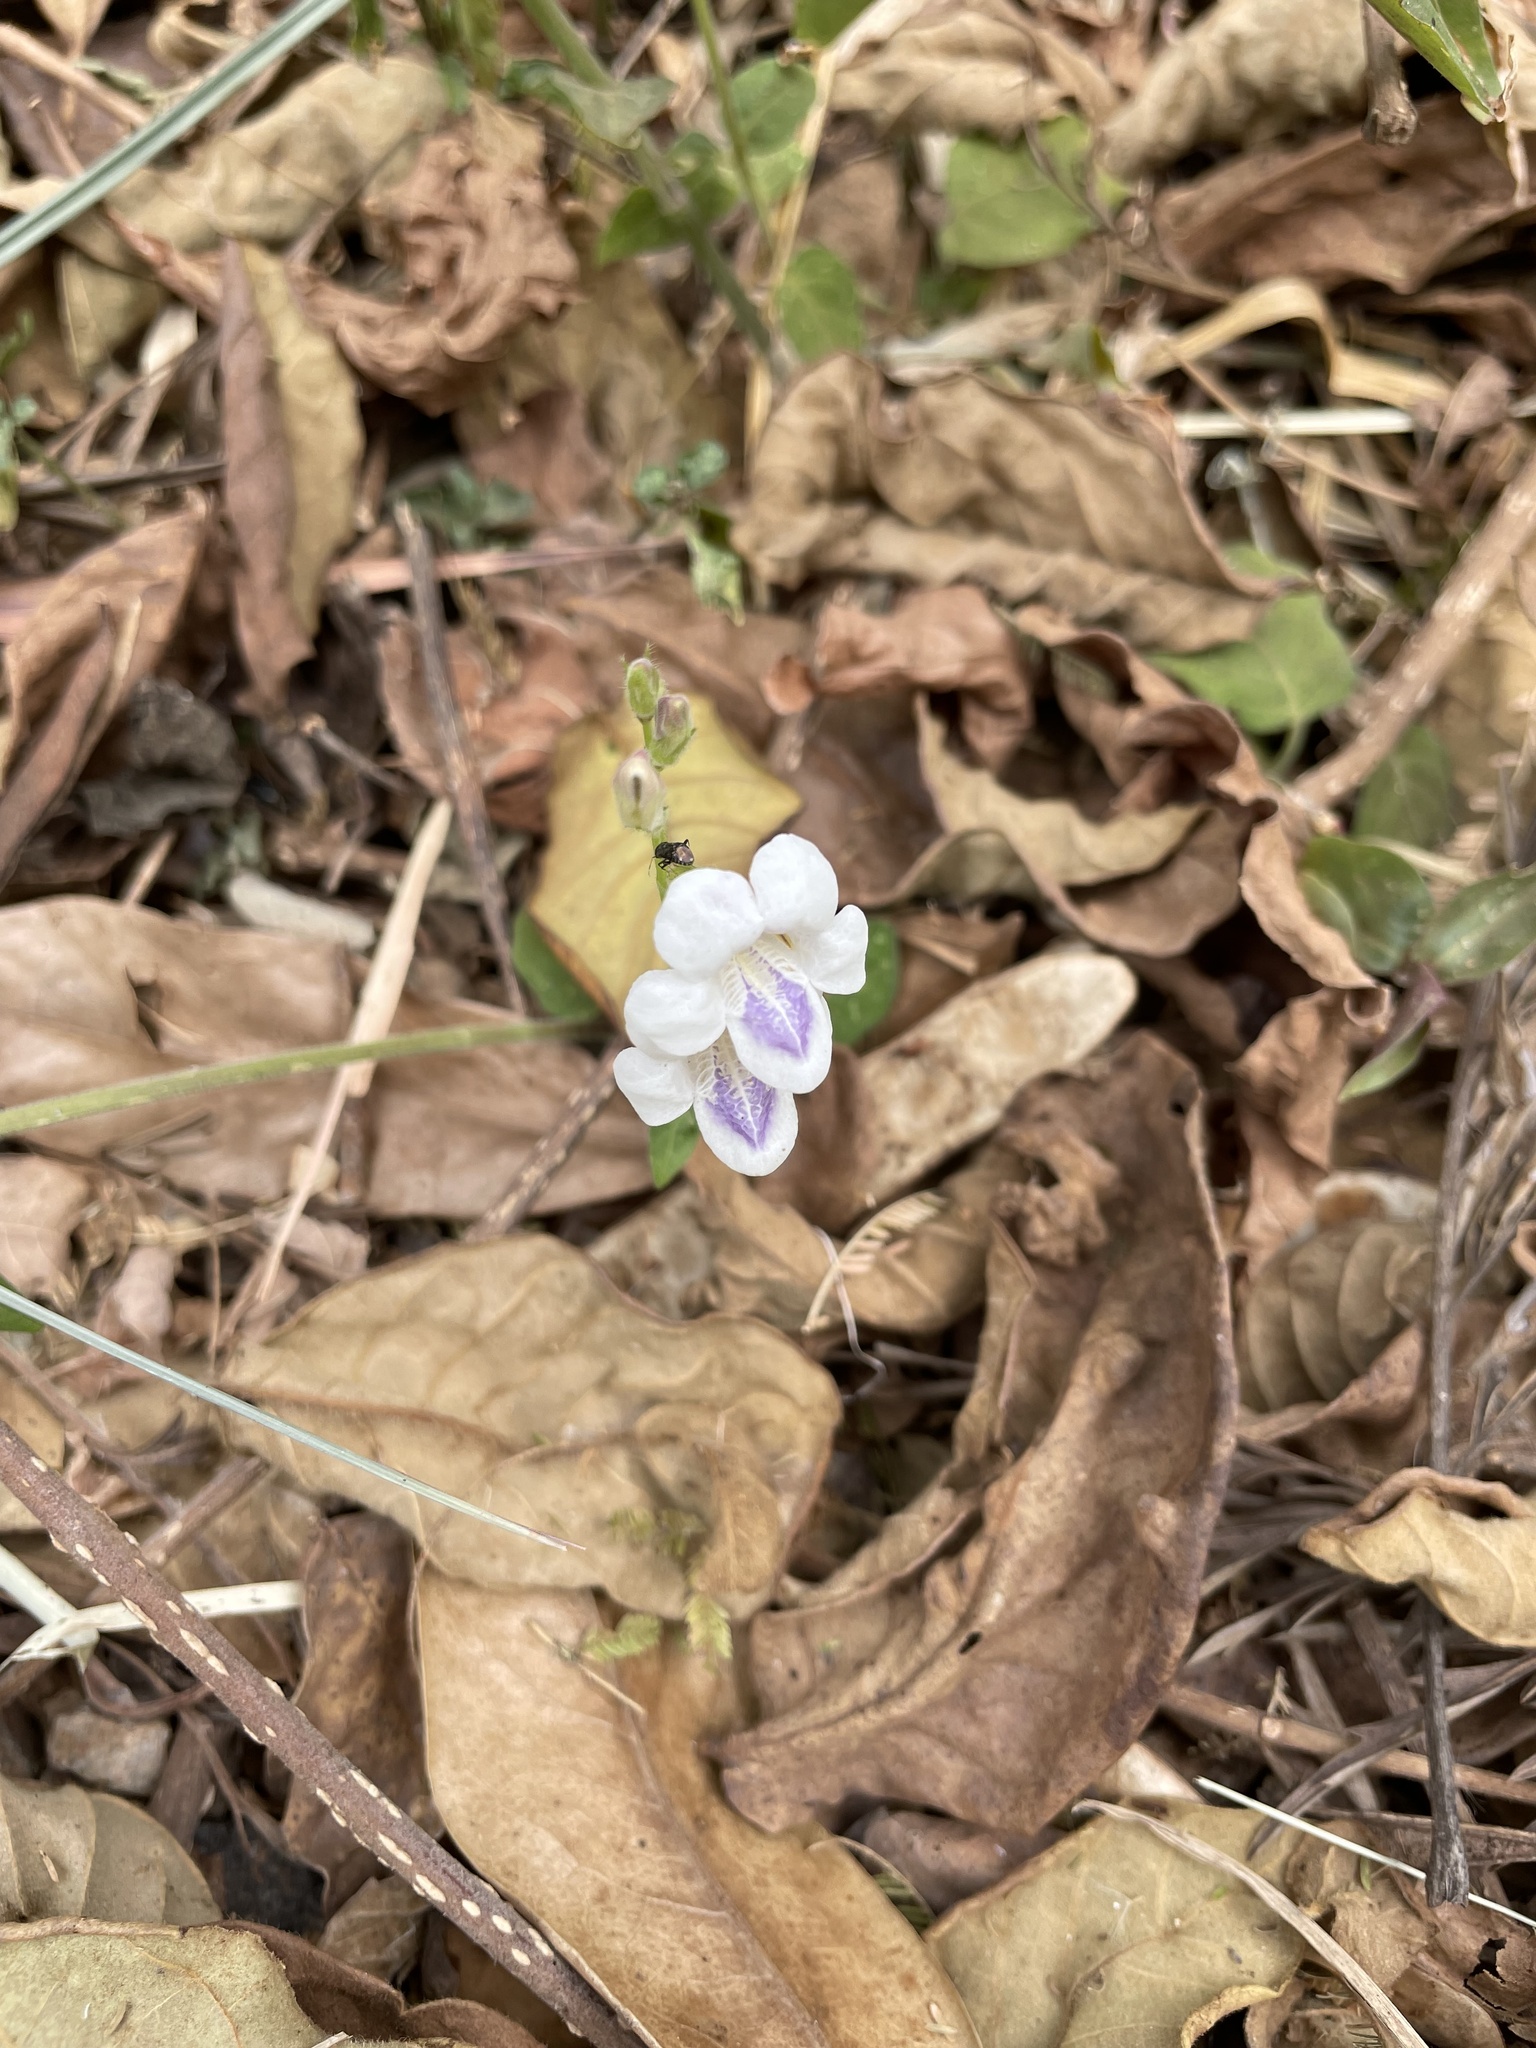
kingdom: Plantae
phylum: Tracheophyta
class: Magnoliopsida
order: Lamiales
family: Acanthaceae
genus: Asystasia
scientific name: Asystasia intrusa
